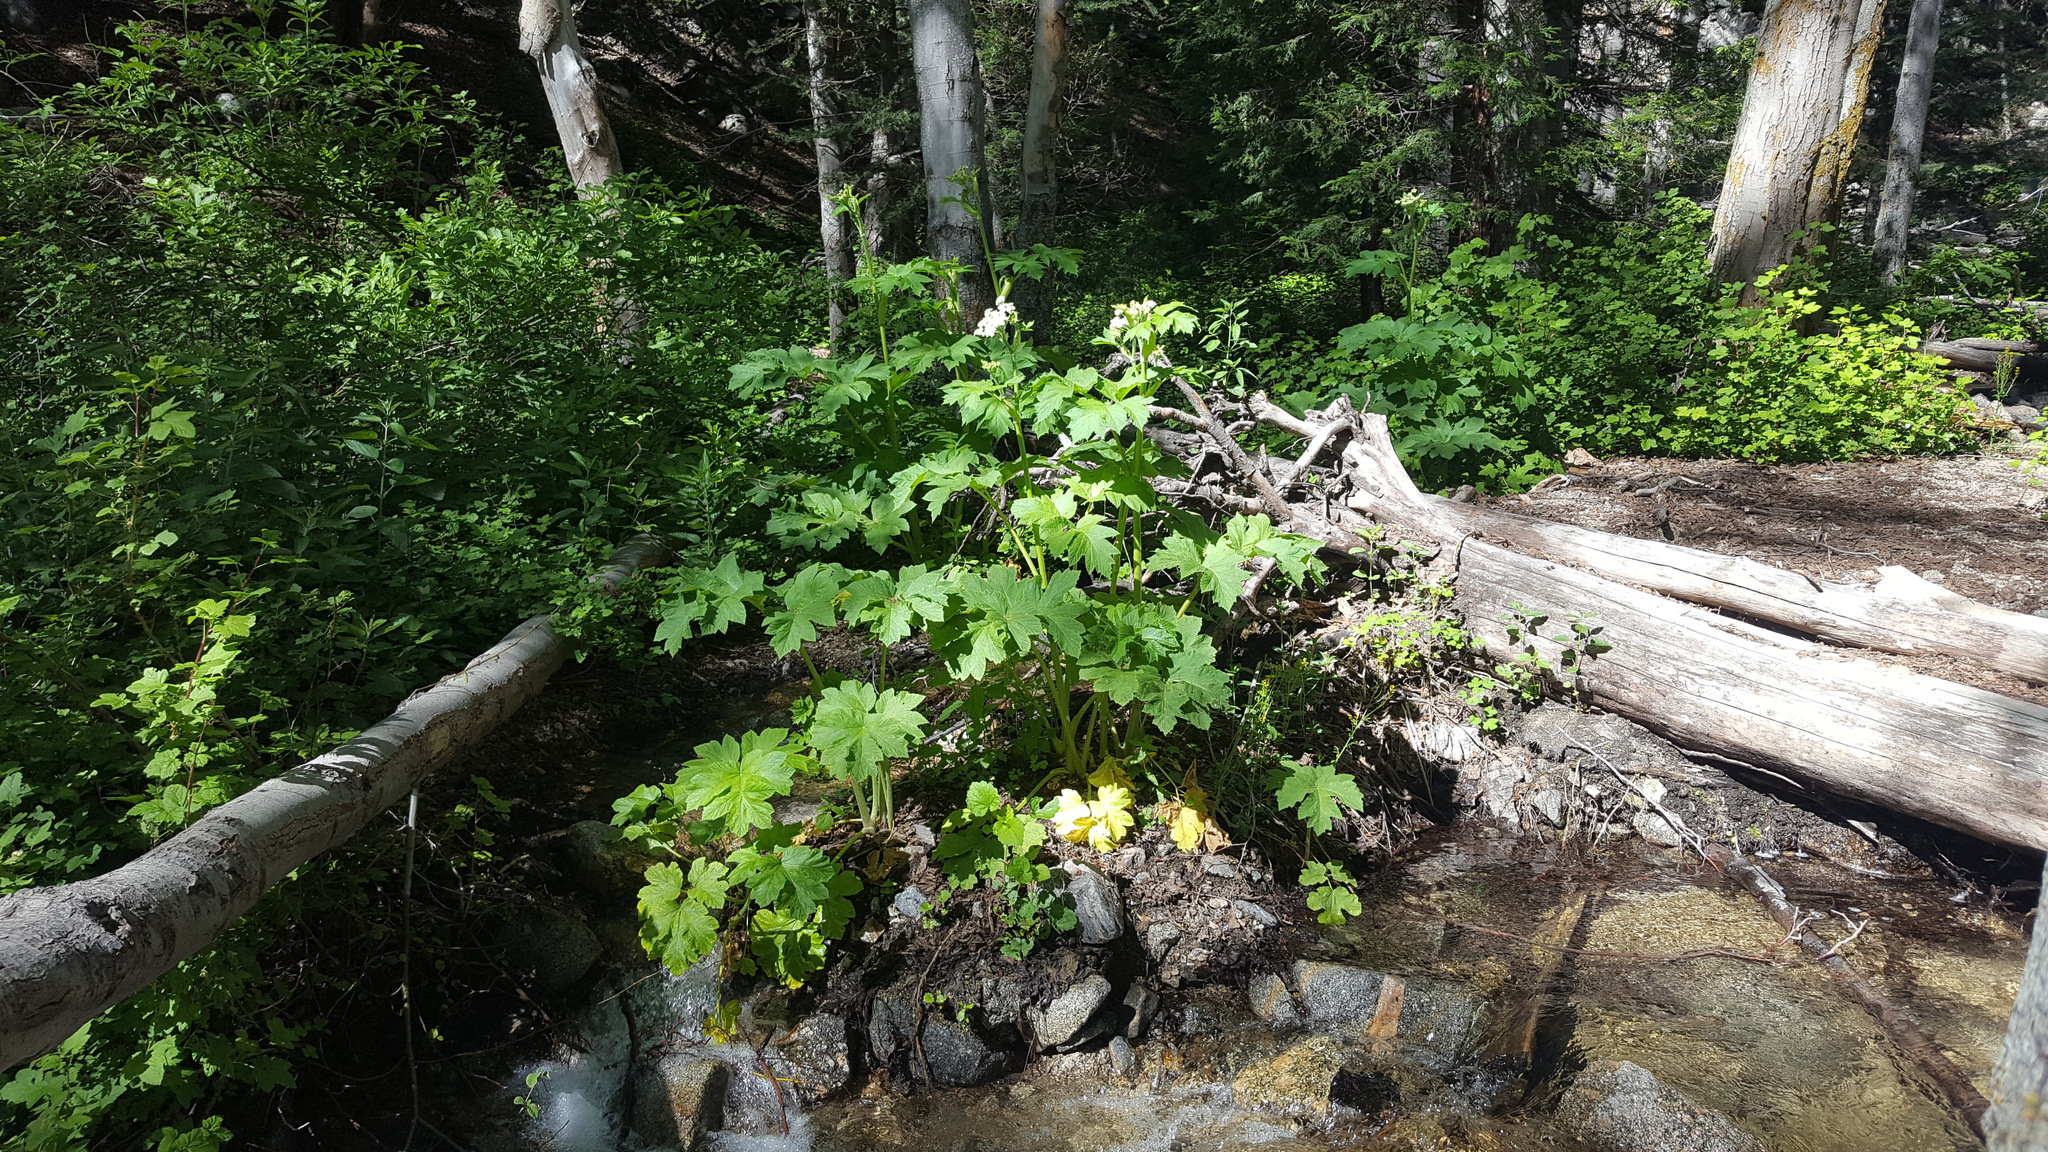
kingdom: Plantae
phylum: Tracheophyta
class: Magnoliopsida
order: Apiales
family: Apiaceae
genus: Heracleum
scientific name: Heracleum maximum
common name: American cow parsnip
